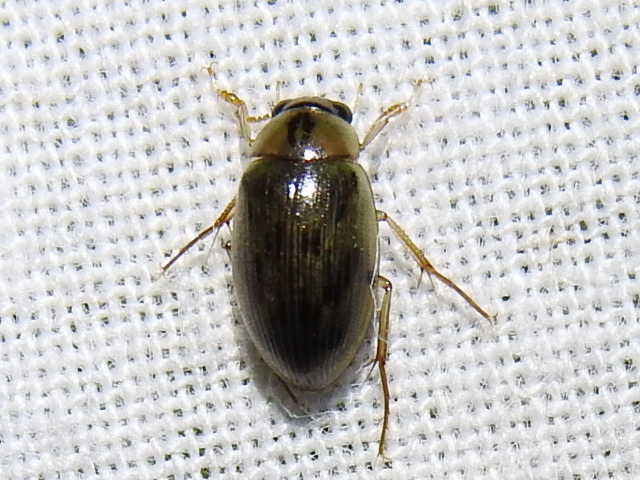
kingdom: Animalia
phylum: Arthropoda
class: Insecta
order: Coleoptera
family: Hydrophilidae
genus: Berosus
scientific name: Berosus
